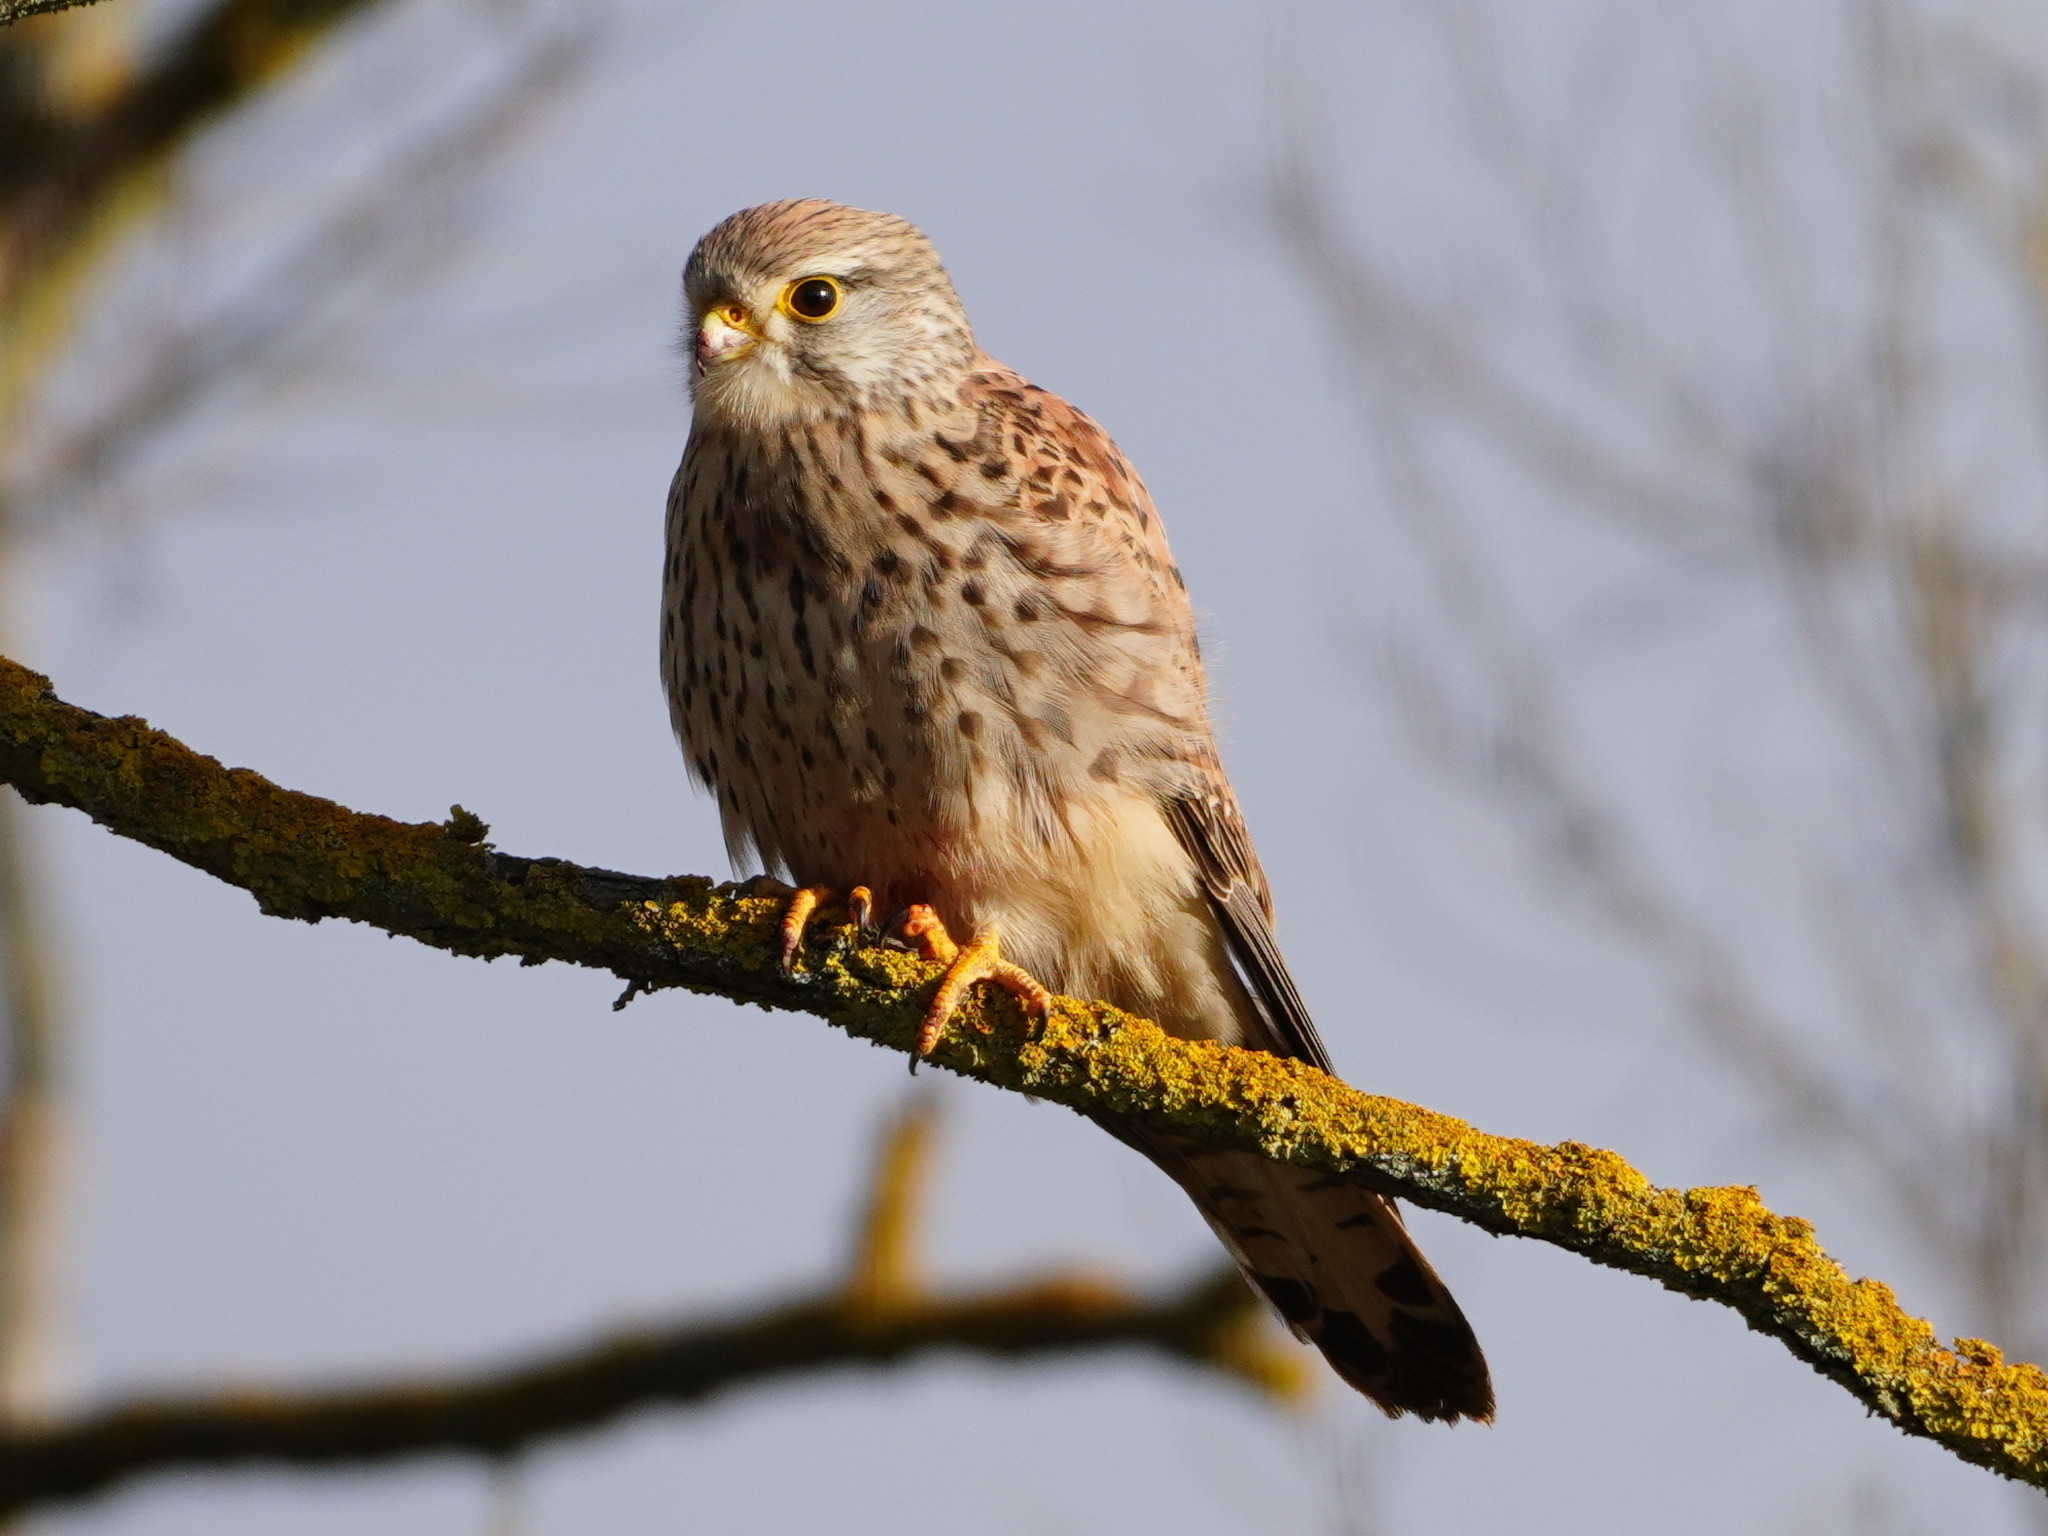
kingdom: Animalia
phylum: Chordata
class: Aves
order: Falconiformes
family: Falconidae
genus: Falco
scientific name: Falco tinnunculus
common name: Common kestrel
